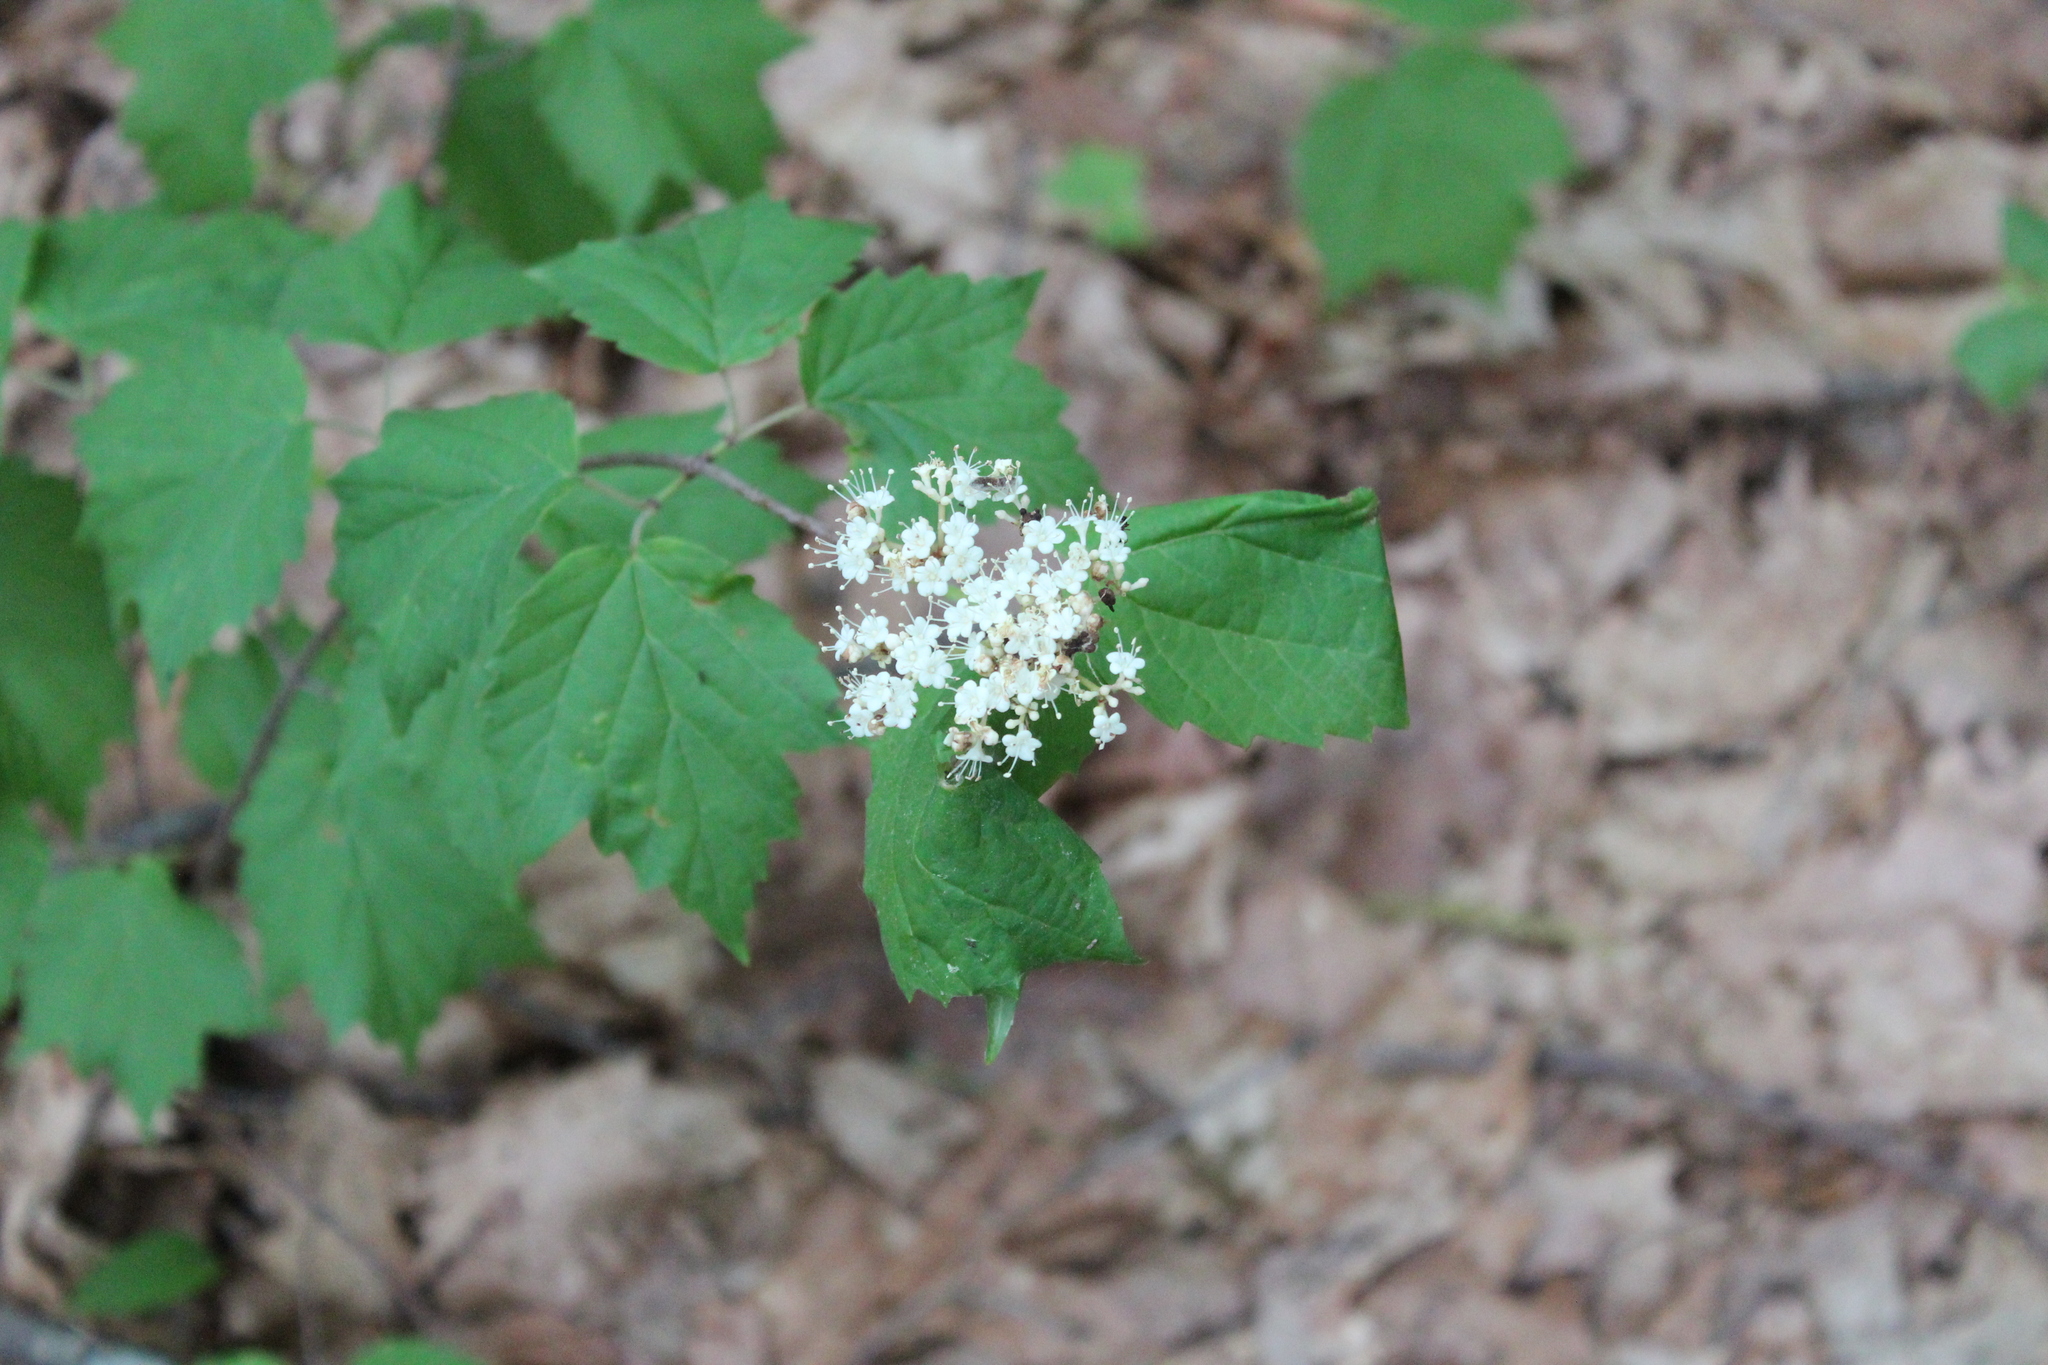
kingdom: Plantae
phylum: Tracheophyta
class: Magnoliopsida
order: Dipsacales
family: Viburnaceae
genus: Viburnum
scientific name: Viburnum acerifolium
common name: Dockmackie
